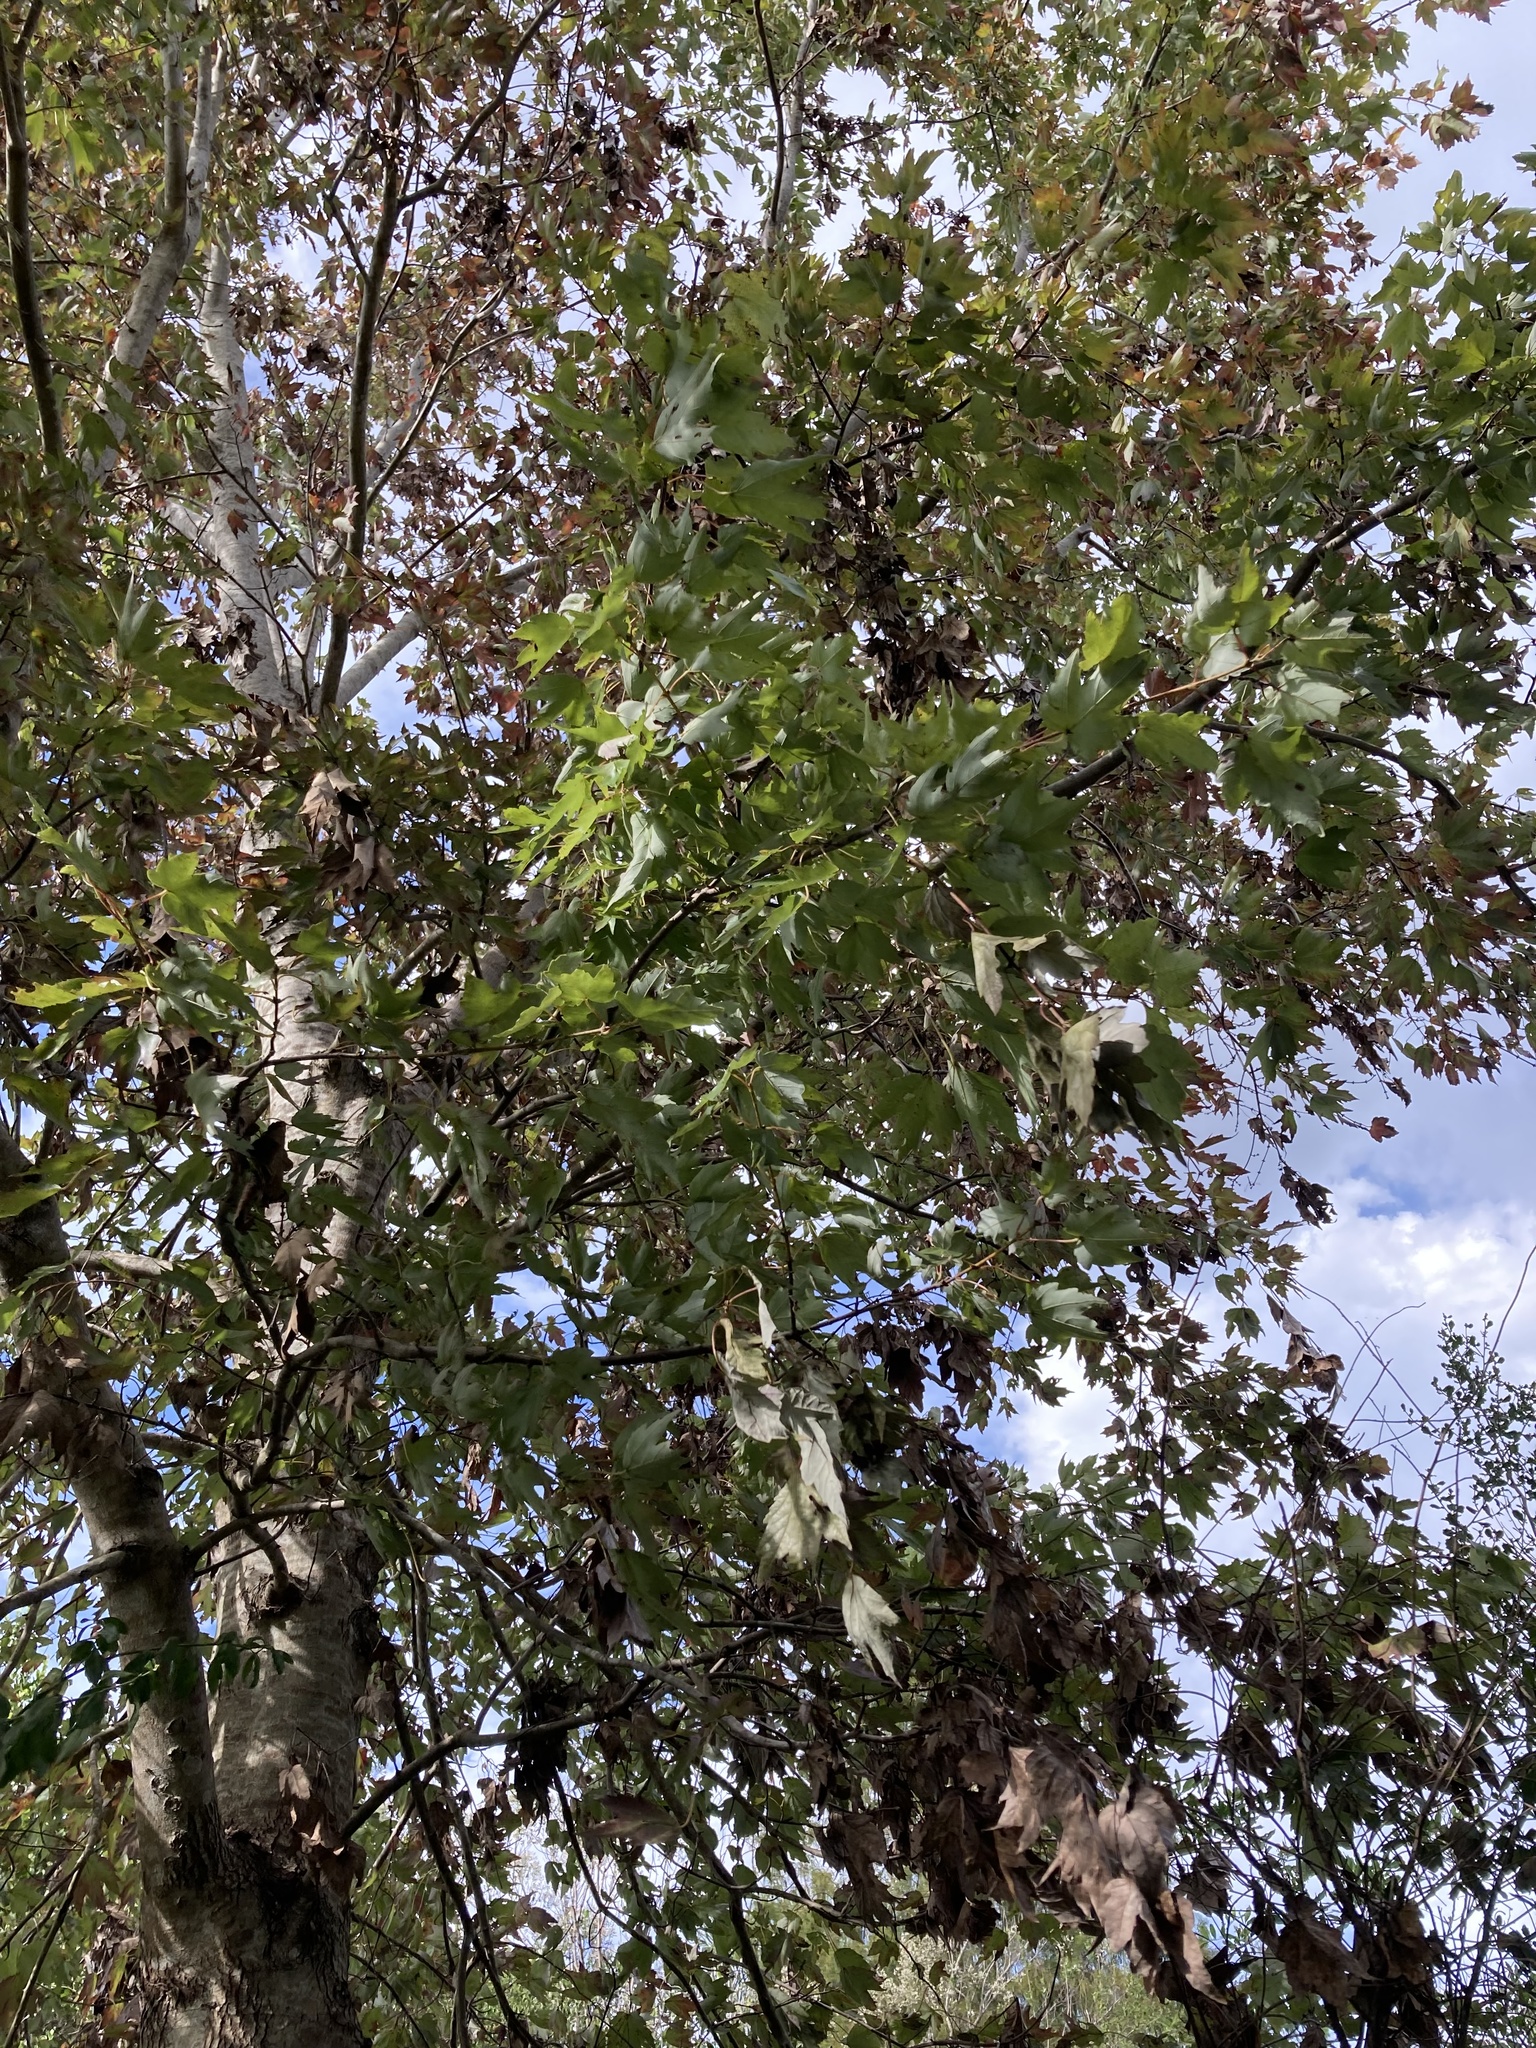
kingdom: Plantae
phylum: Tracheophyta
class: Magnoliopsida
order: Sapindales
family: Sapindaceae
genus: Acer
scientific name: Acer rubrum
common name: Red maple
